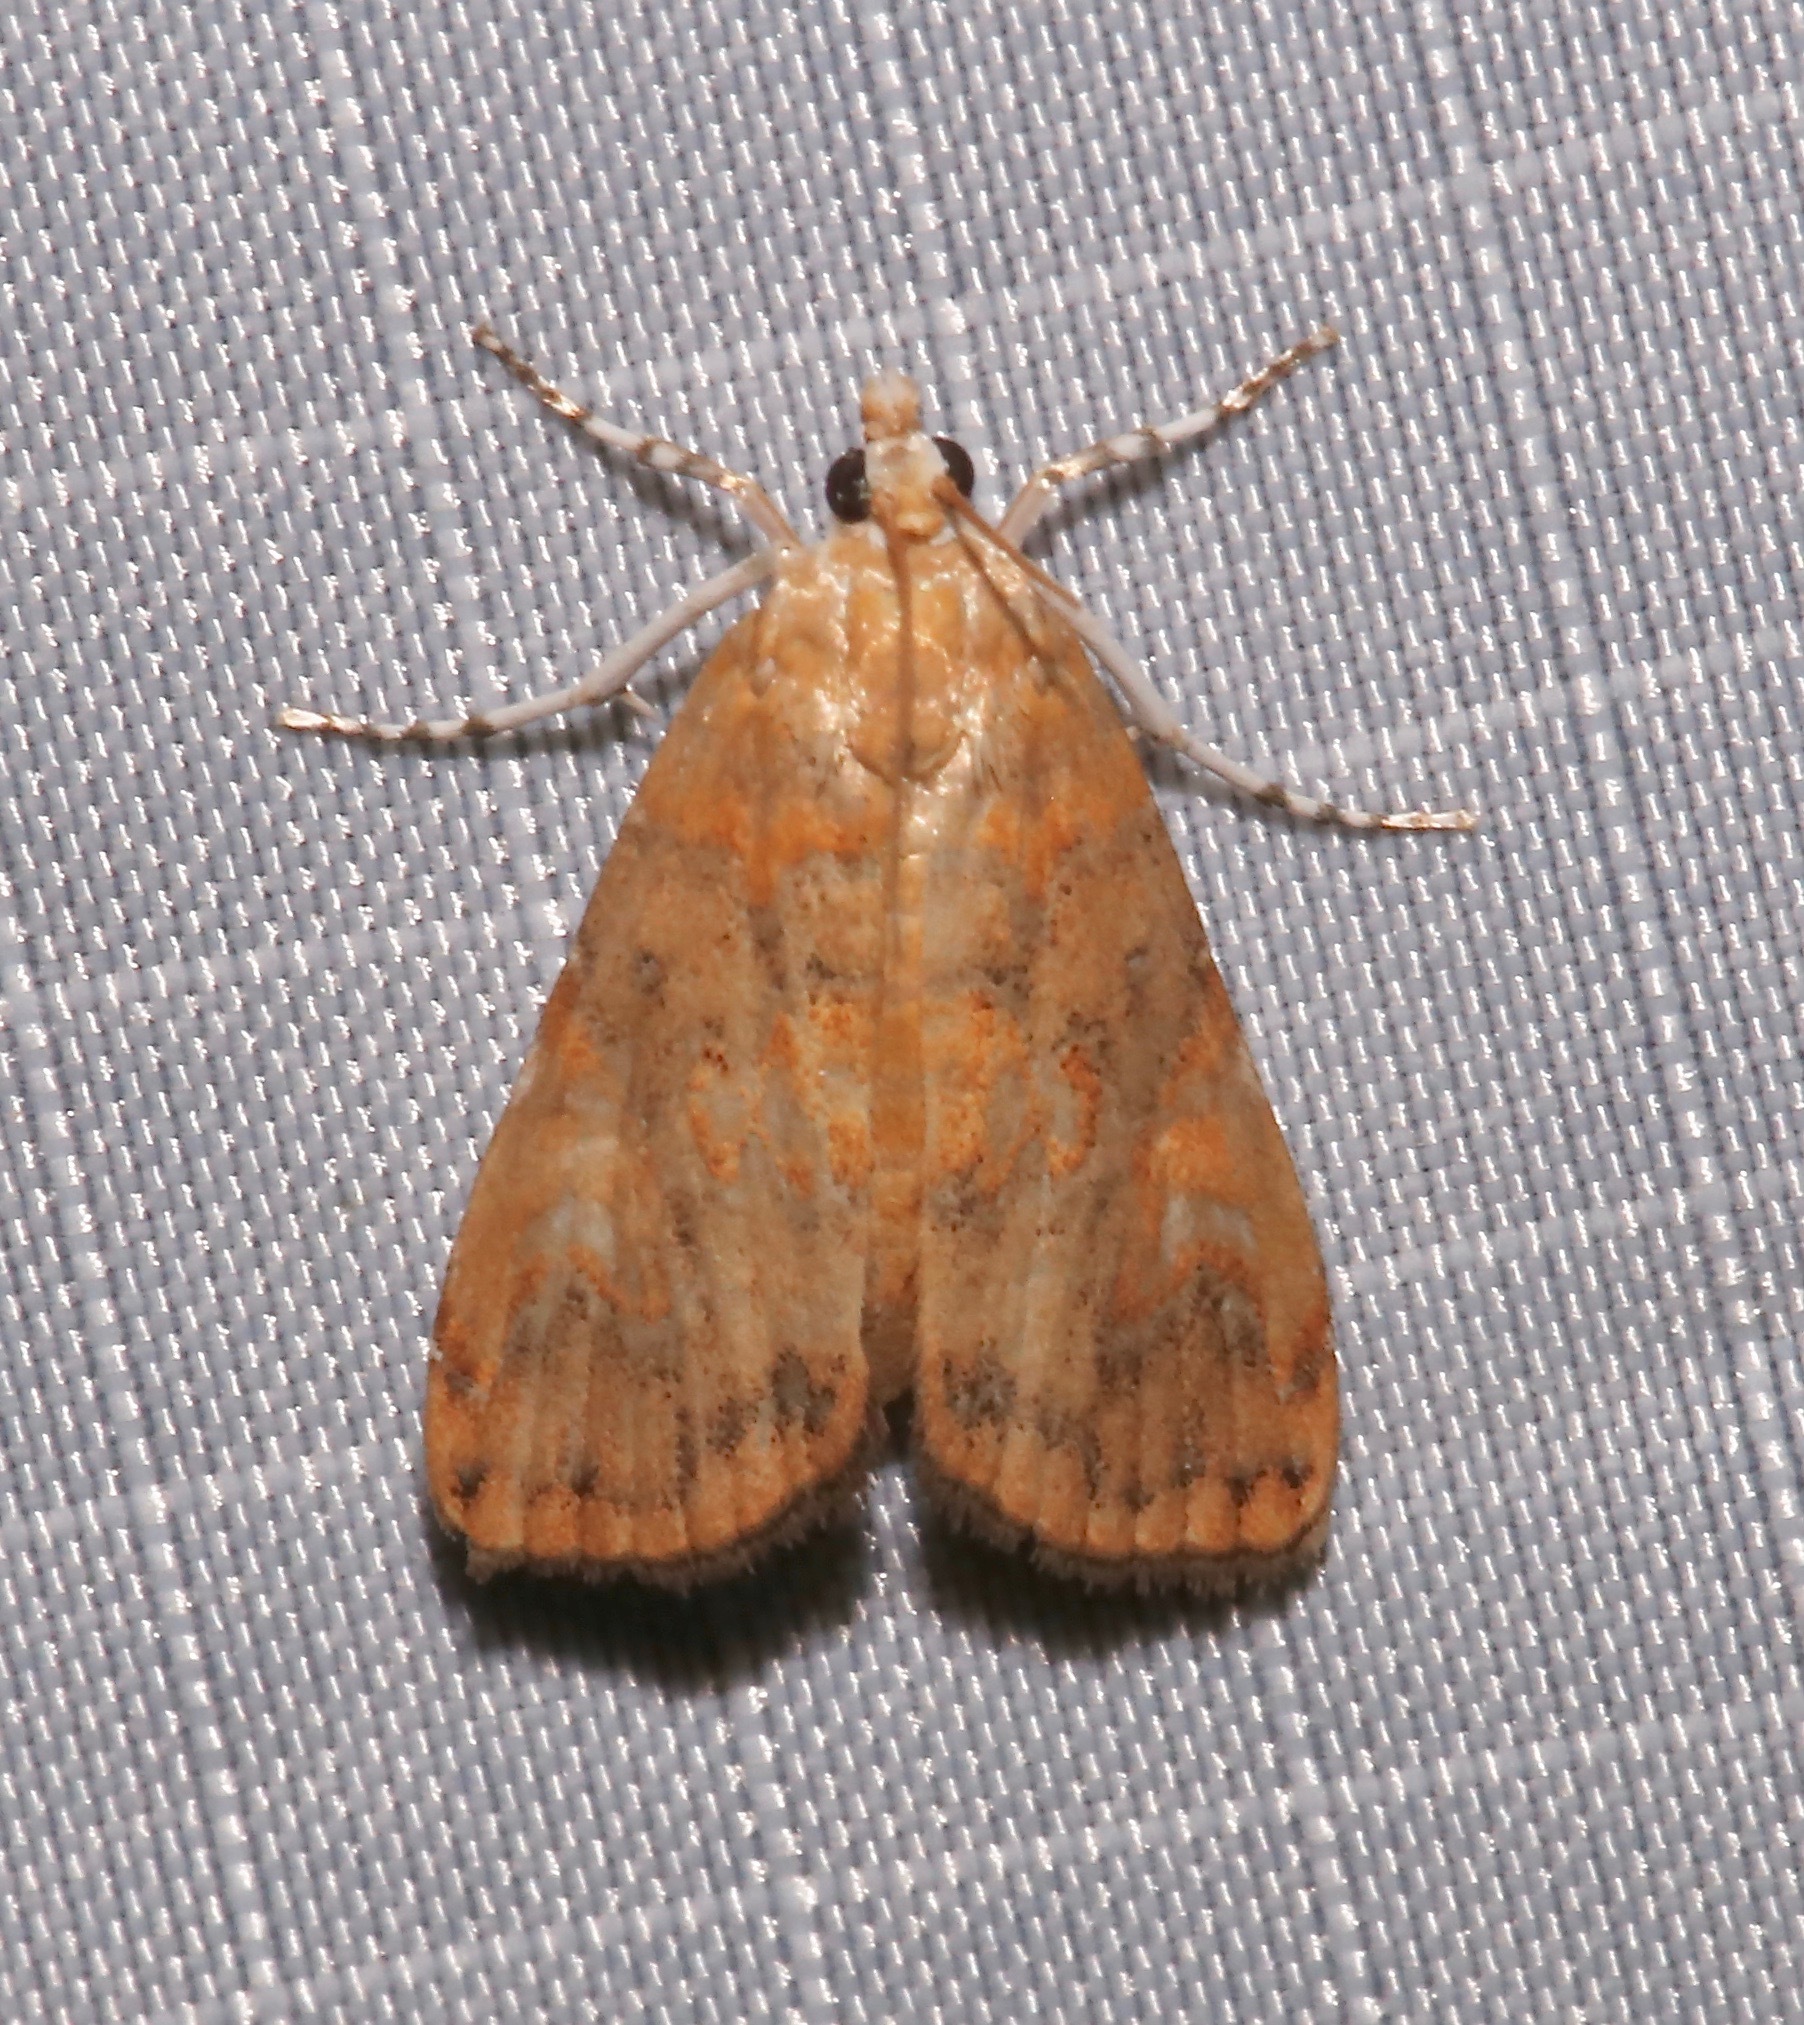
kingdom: Animalia
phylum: Arthropoda
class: Insecta
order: Lepidoptera
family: Crambidae
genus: Elophila
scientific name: Elophila gyralis
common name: Waterlily borer moth
